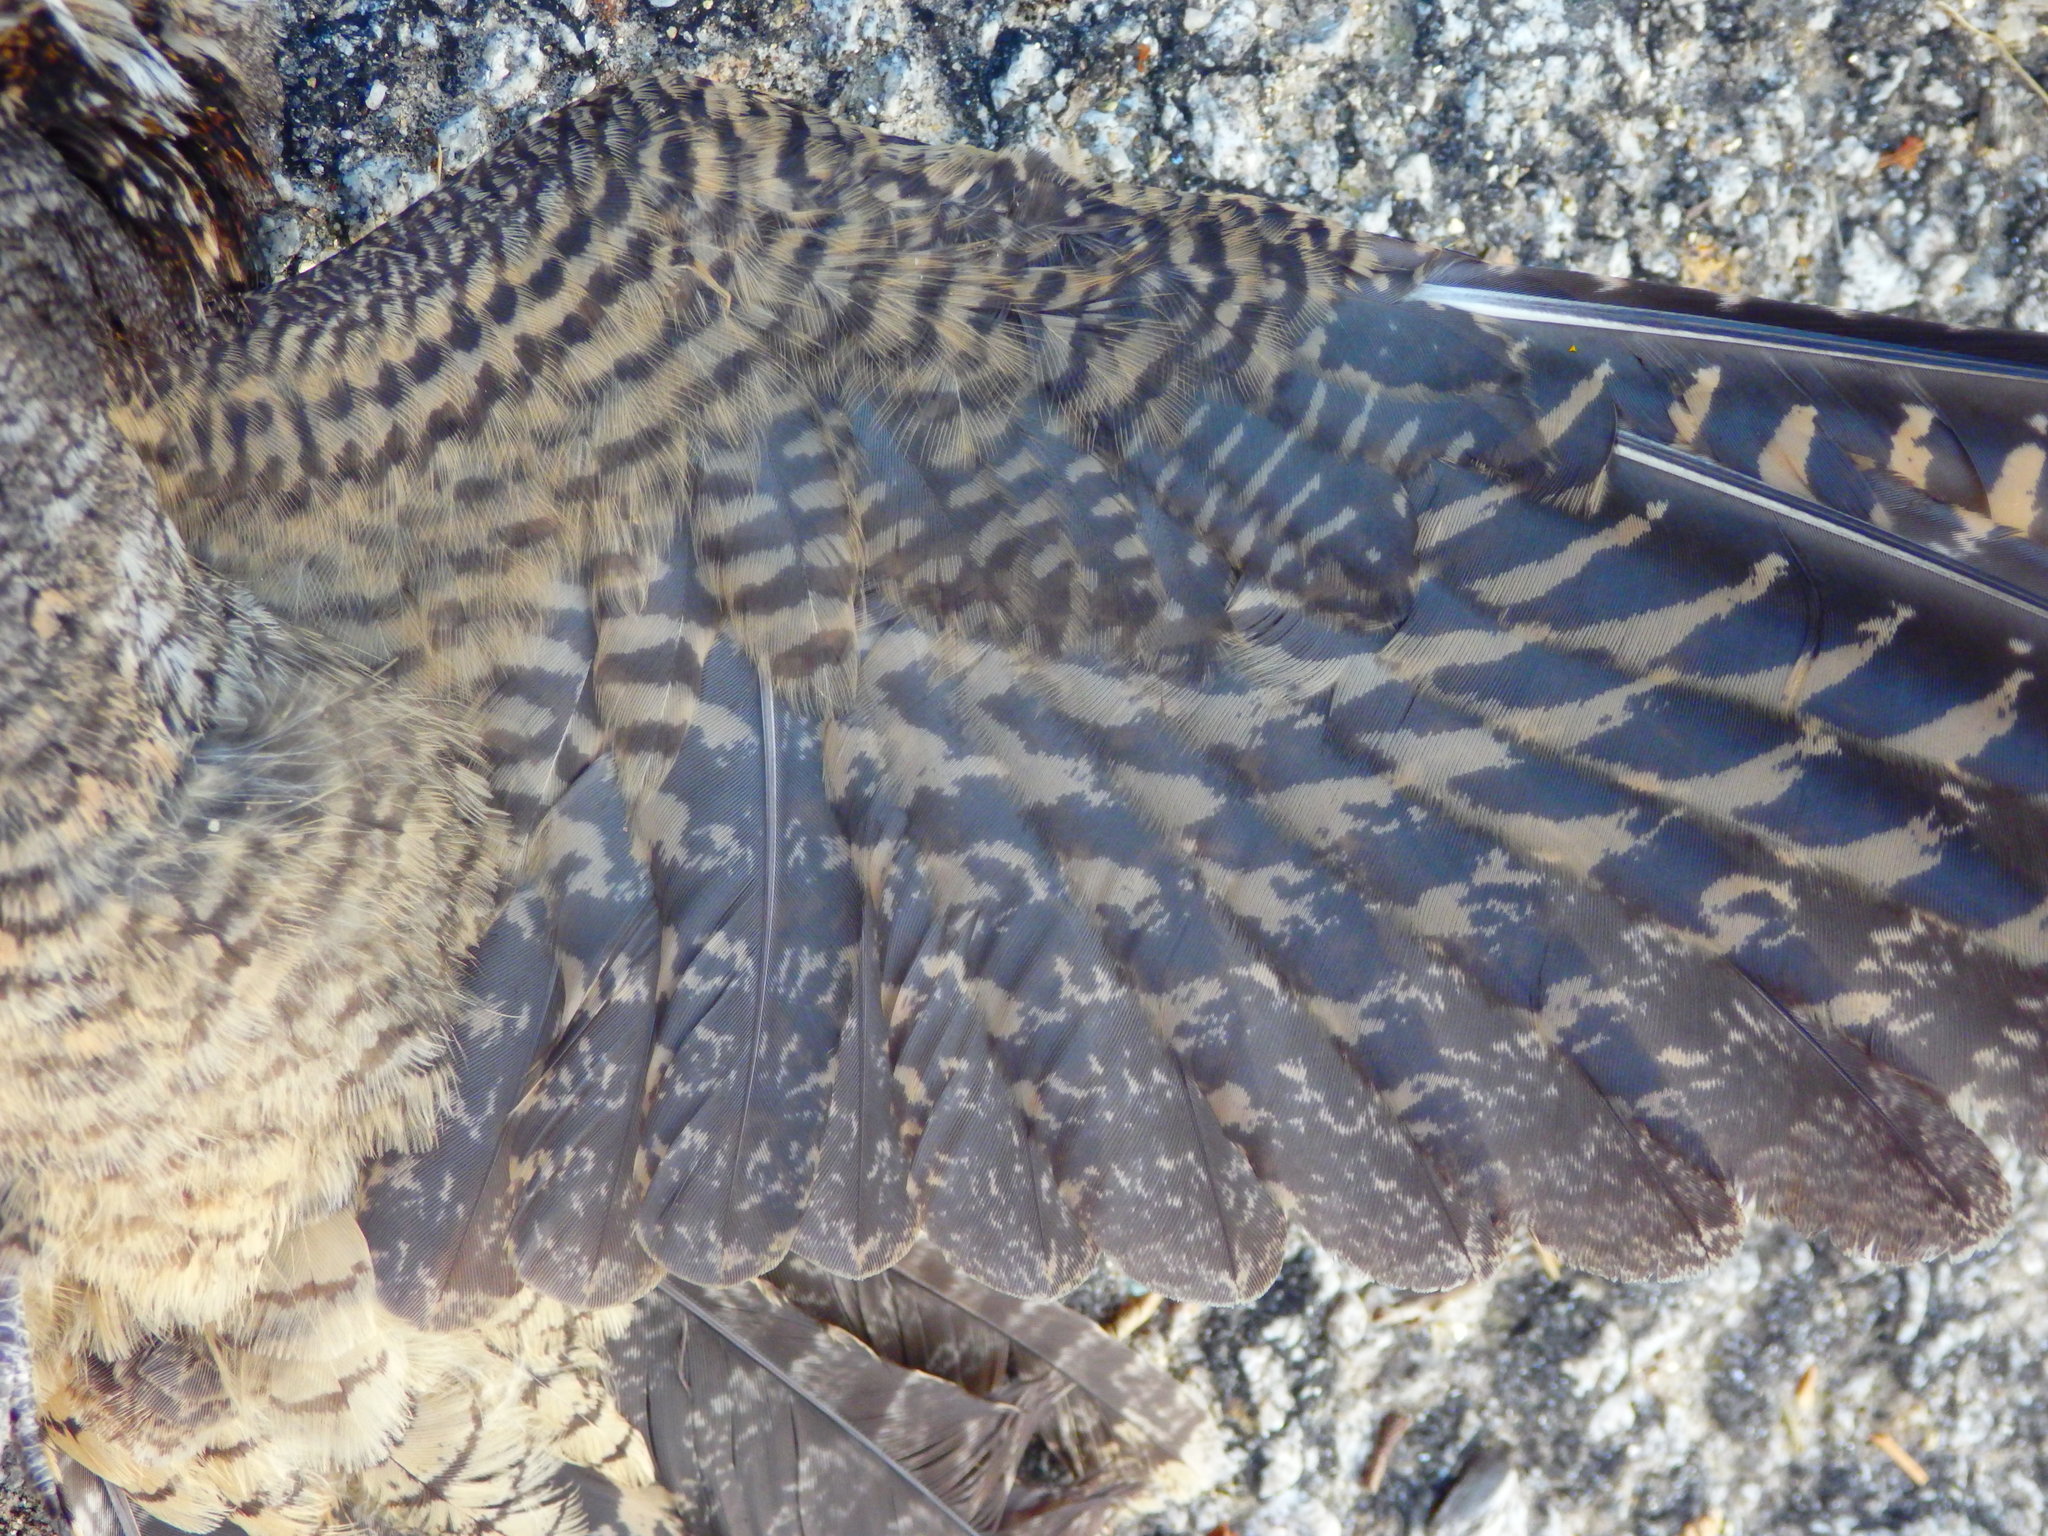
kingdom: Animalia
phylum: Chordata
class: Aves
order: Caprimulgiformes
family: Caprimulgidae
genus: Caprimulgus
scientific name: Caprimulgus europaeus
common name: European nightjar
